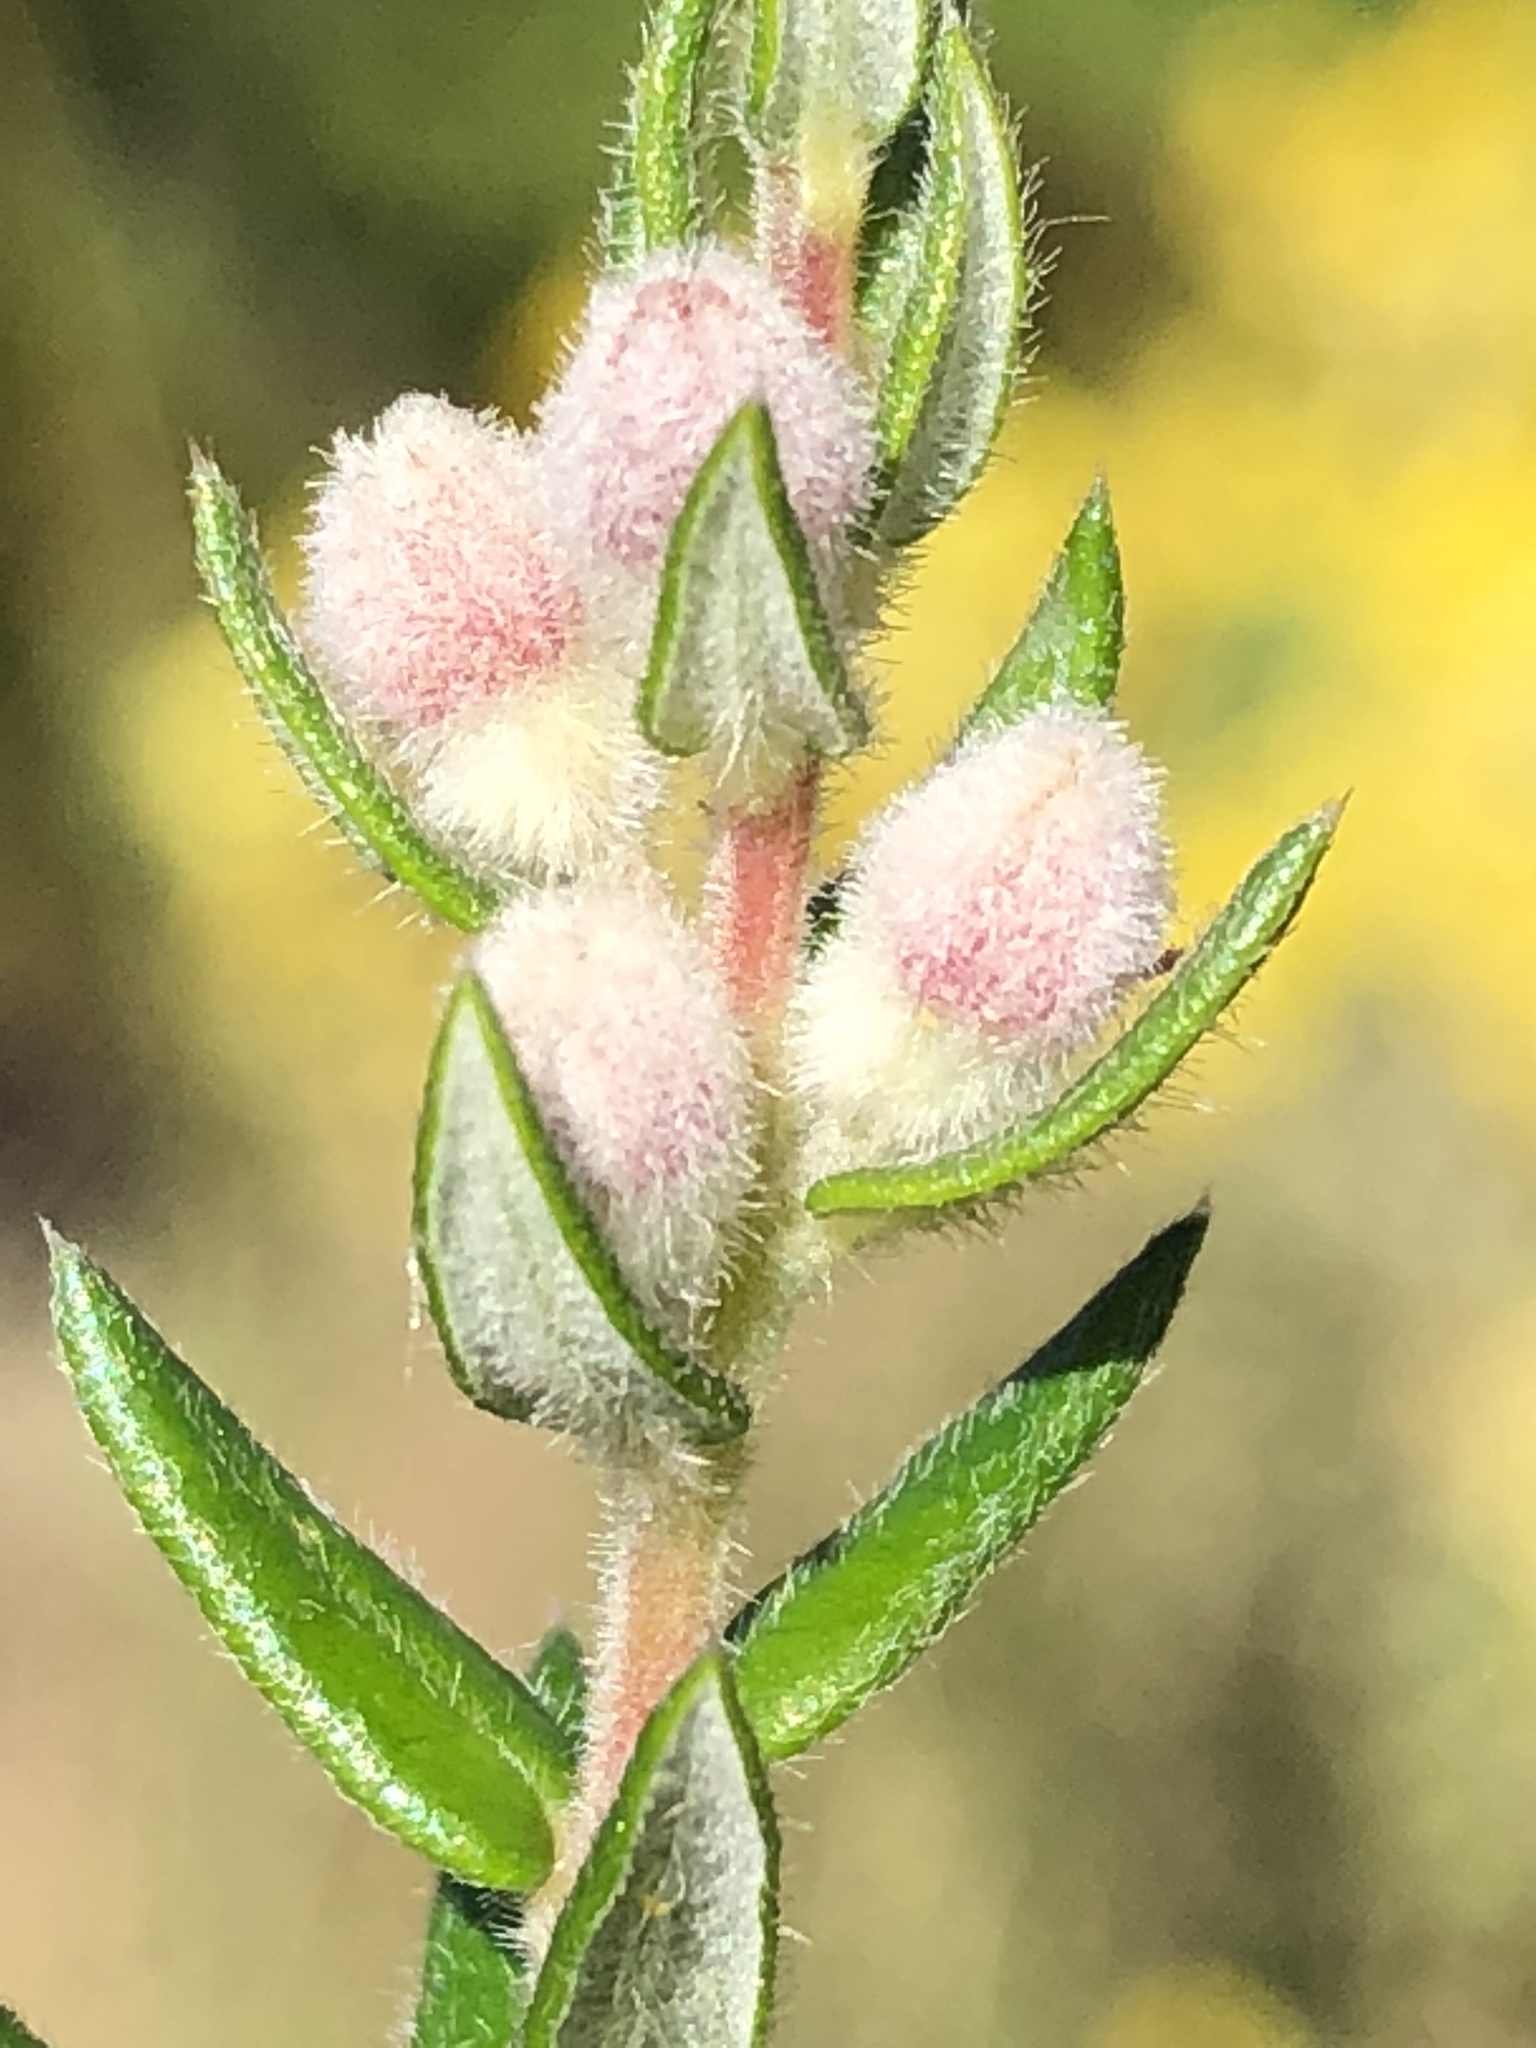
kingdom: Plantae
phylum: Tracheophyta
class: Magnoliopsida
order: Rosales
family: Rhamnaceae
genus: Phylica
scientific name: Phylica purpurea
